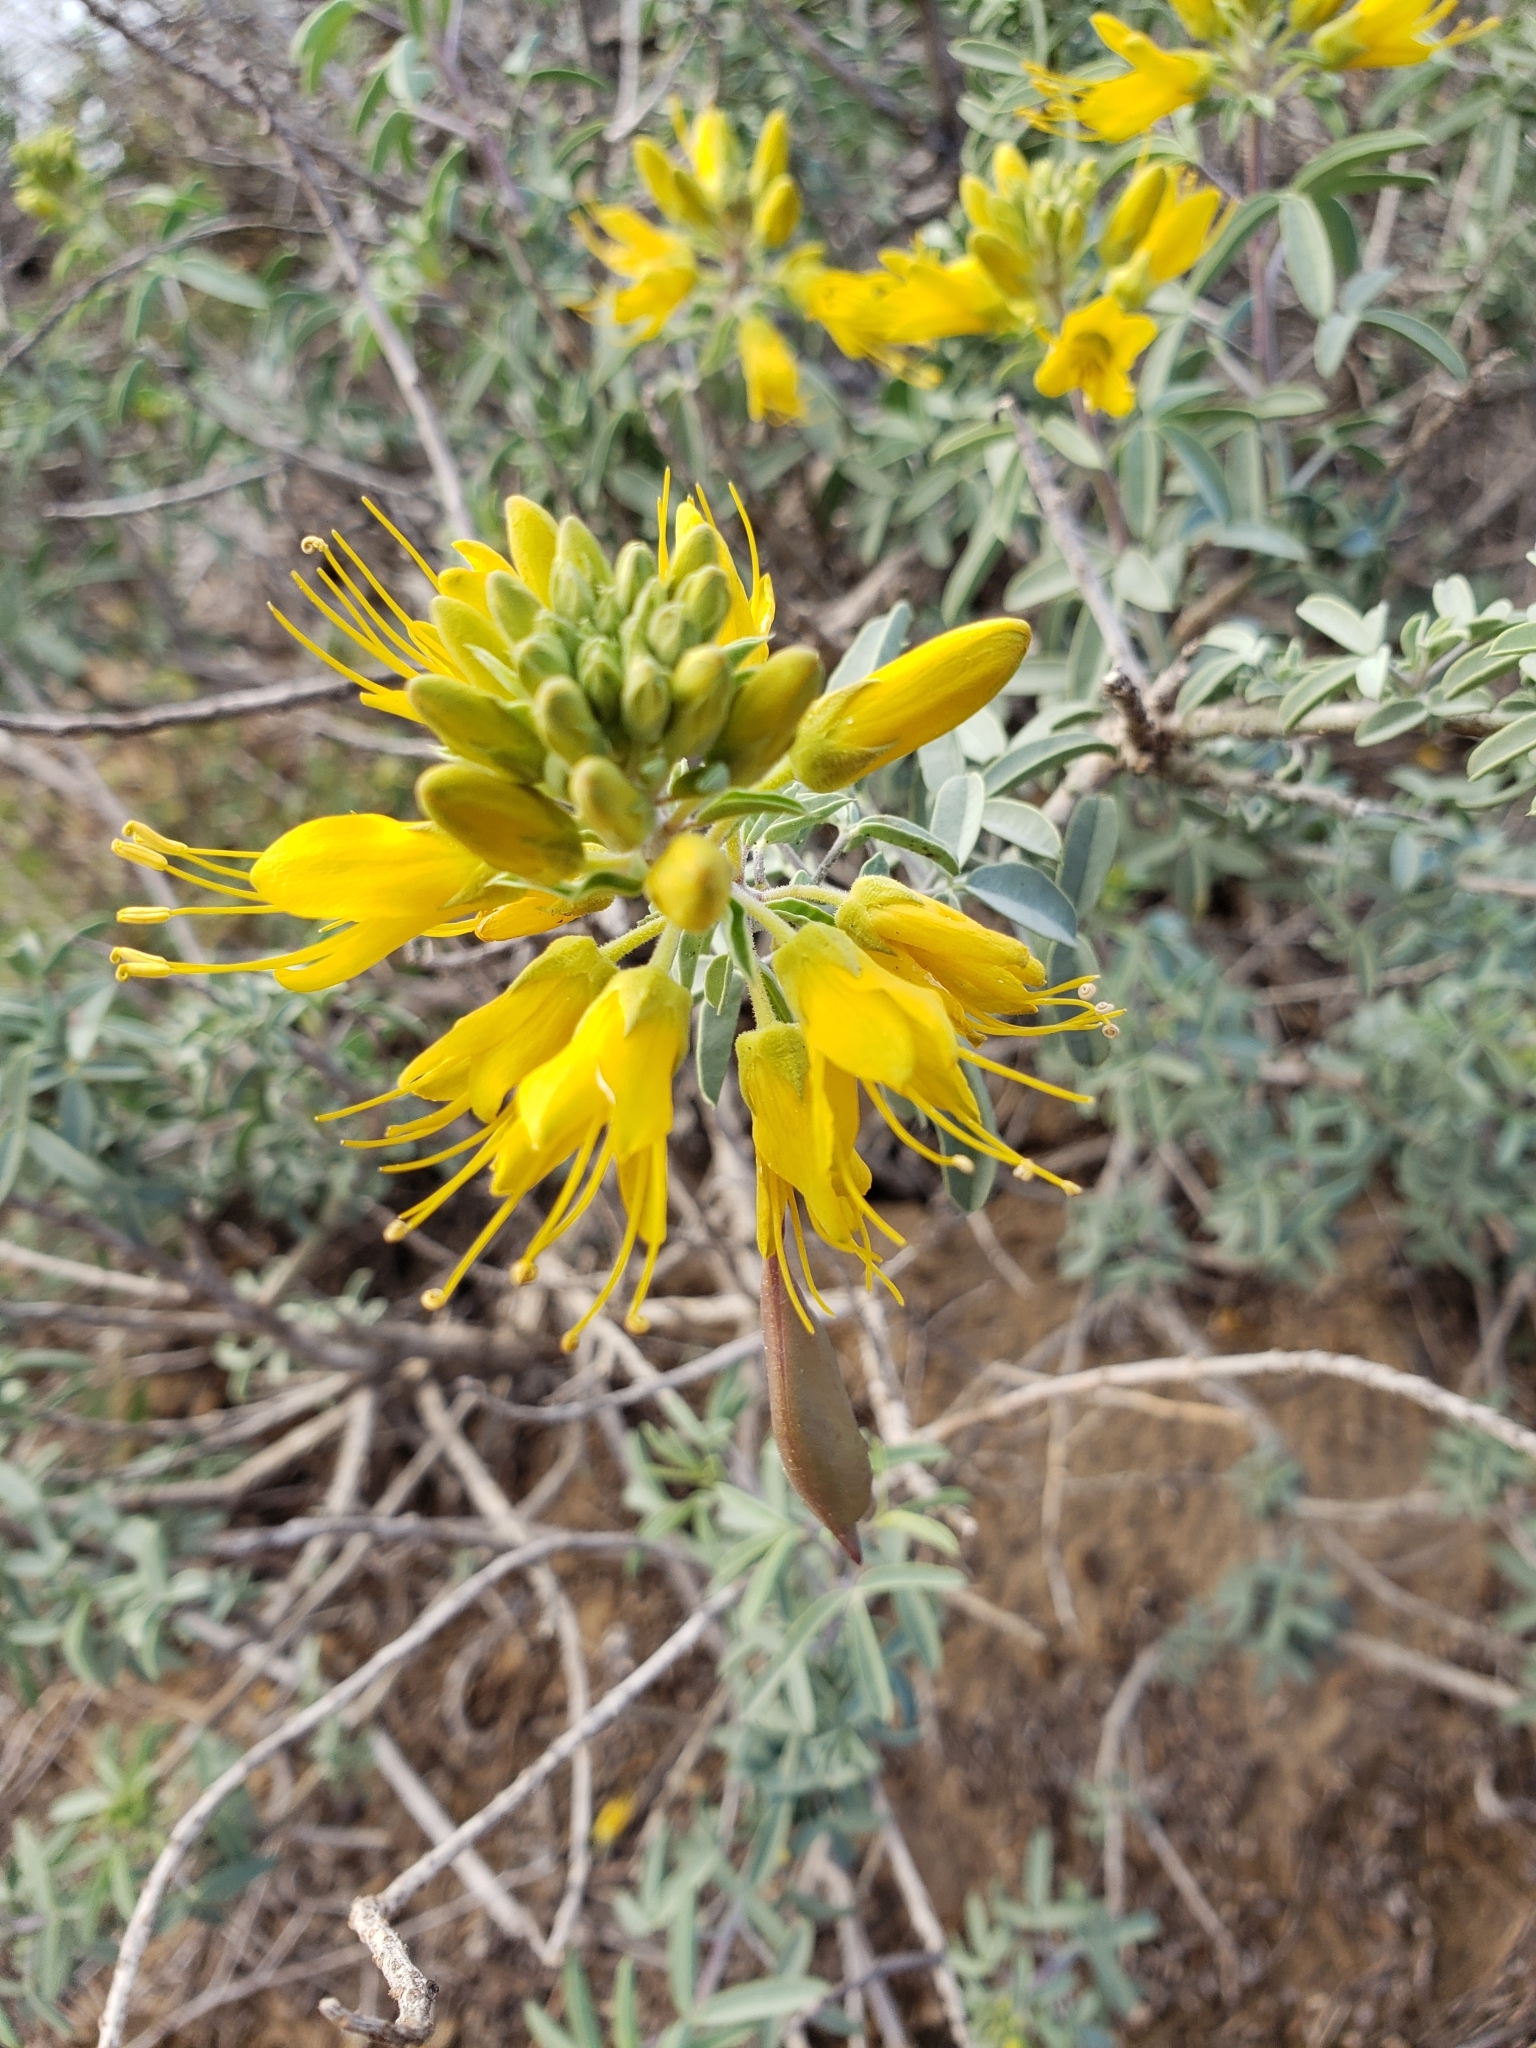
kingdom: Plantae
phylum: Tracheophyta
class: Magnoliopsida
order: Brassicales
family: Cleomaceae
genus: Cleomella
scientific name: Cleomella arborea
